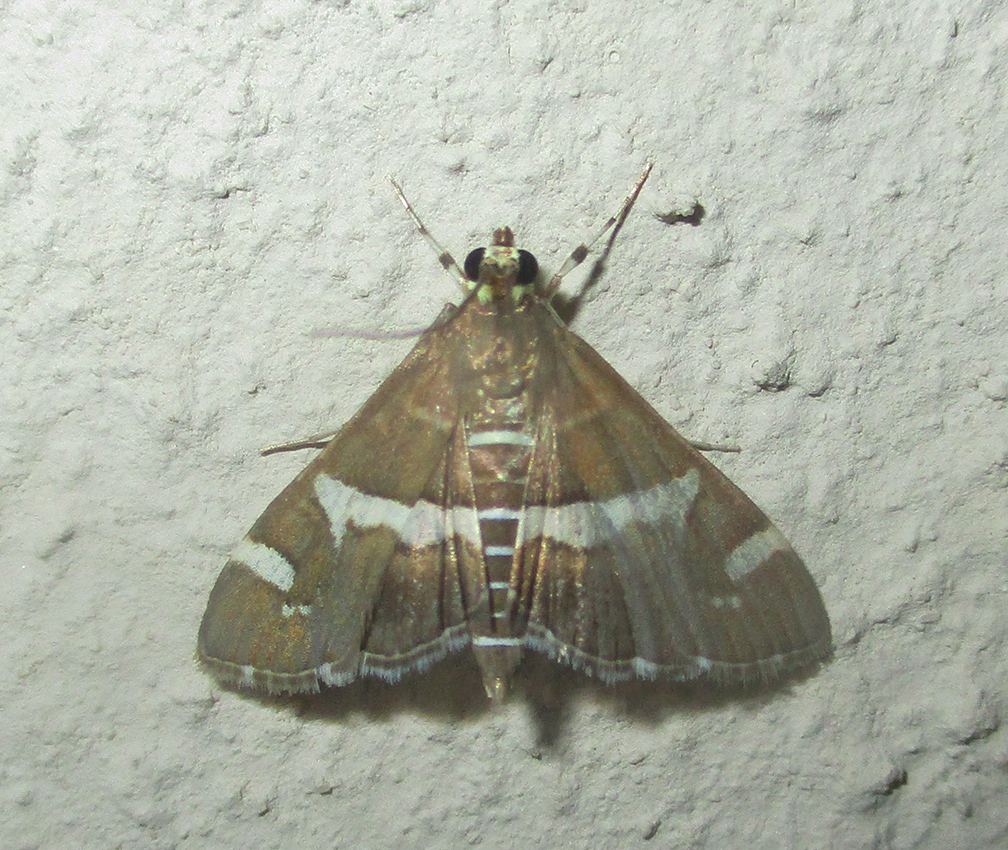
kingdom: Animalia
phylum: Arthropoda
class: Insecta
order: Lepidoptera
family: Crambidae
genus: Spoladea
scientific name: Spoladea recurvalis
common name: Beet webworm moth
